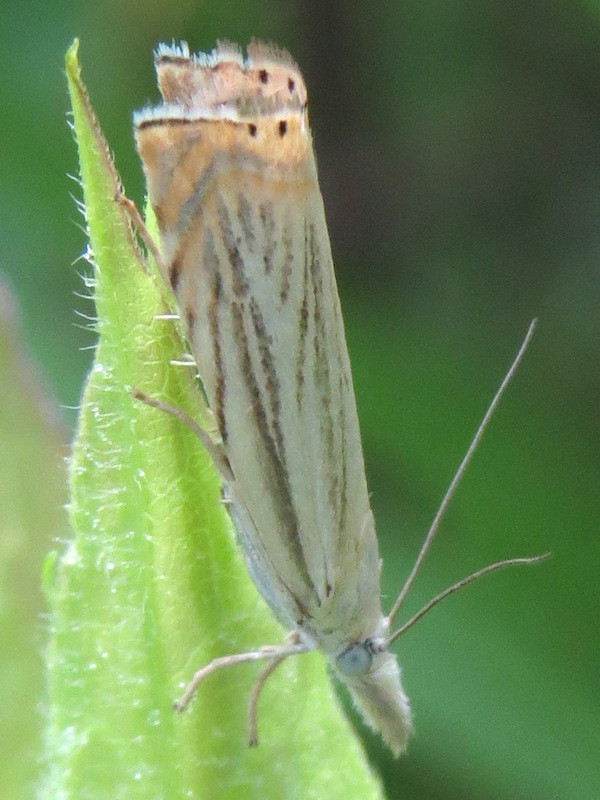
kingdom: Animalia
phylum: Arthropoda
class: Insecta
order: Lepidoptera
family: Crambidae
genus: Chrysoteuchia
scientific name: Chrysoteuchia topiarius
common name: Topiary grass-veneer
